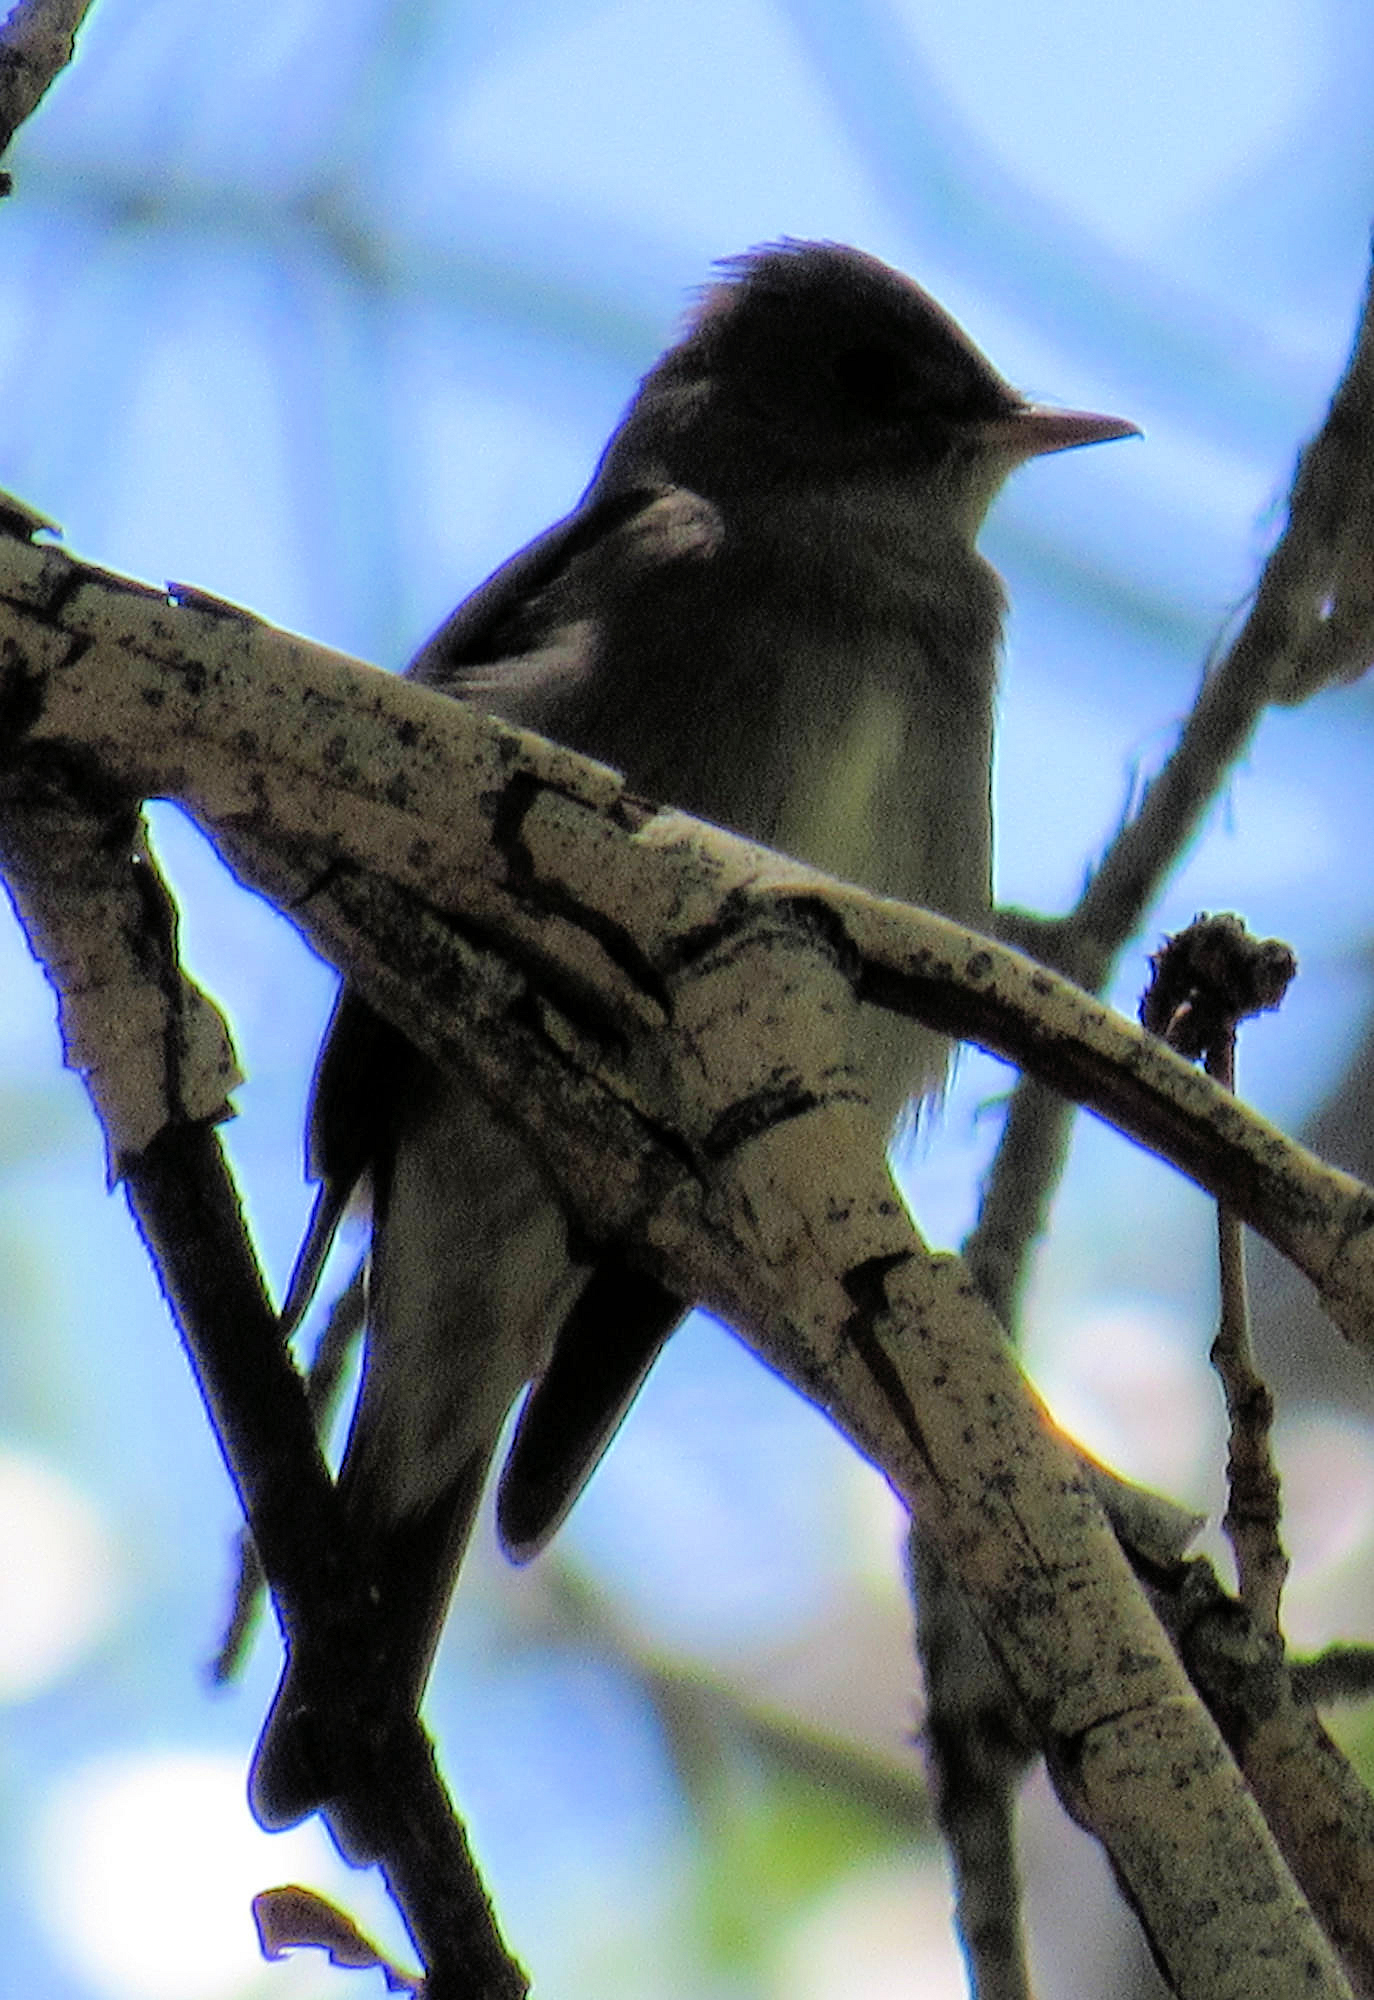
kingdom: Animalia
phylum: Chordata
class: Aves
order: Passeriformes
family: Tyrannidae
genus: Contopus
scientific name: Contopus sordidulus
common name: Western wood-pewee
